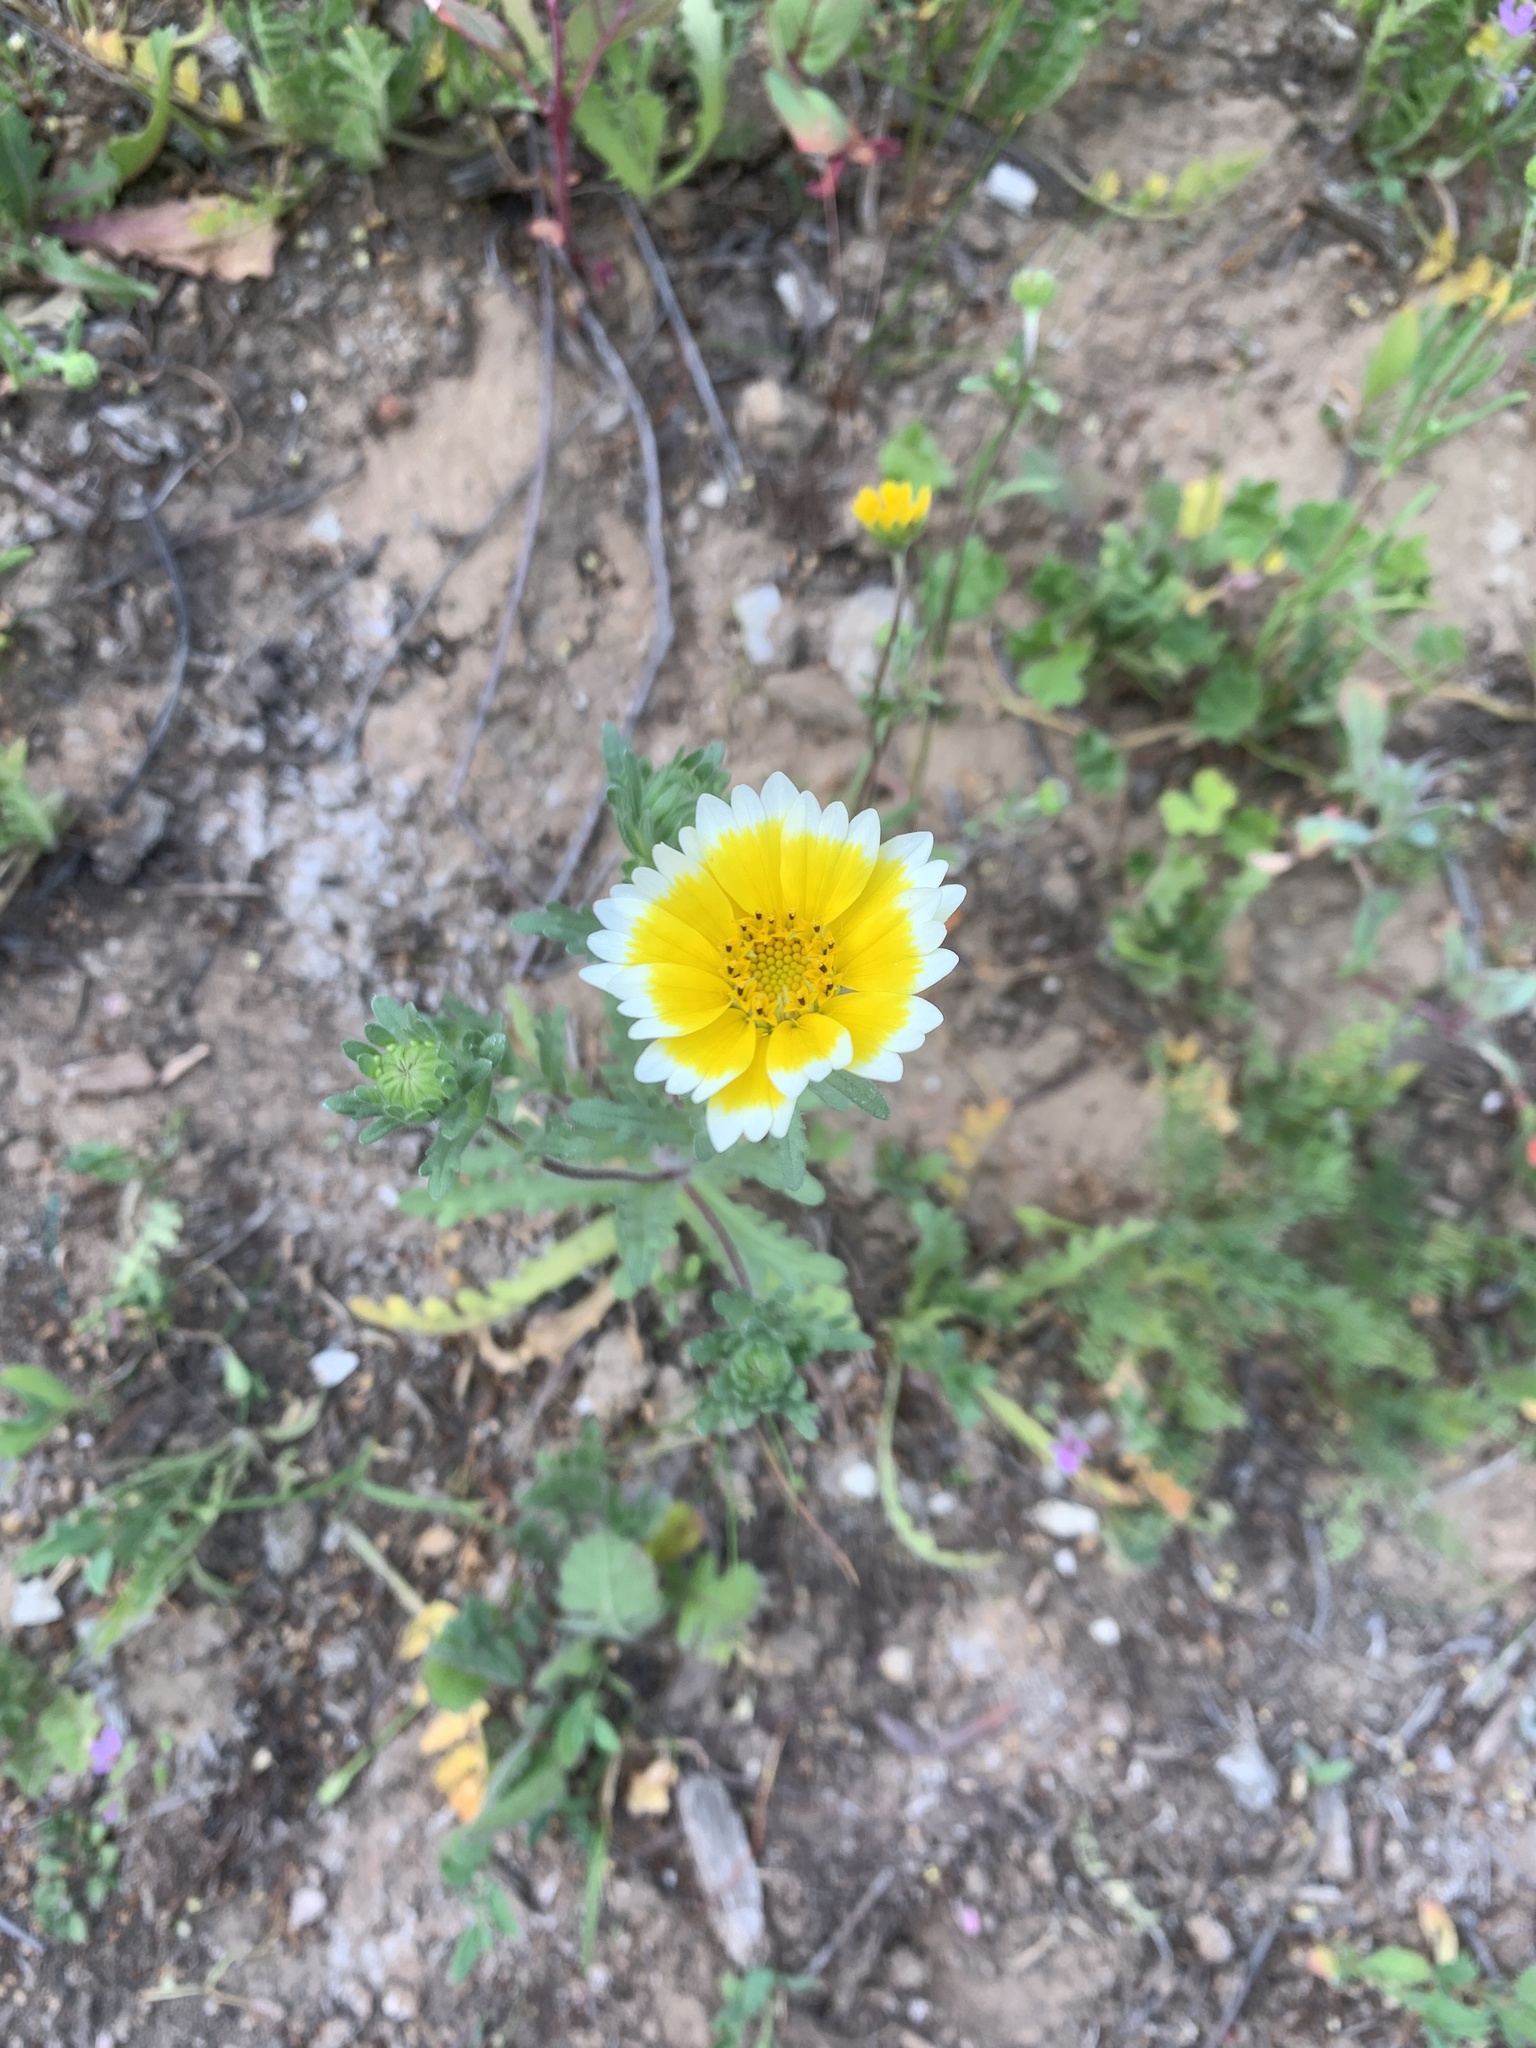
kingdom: Plantae
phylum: Tracheophyta
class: Magnoliopsida
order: Asterales
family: Asteraceae
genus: Layia
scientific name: Layia platyglossa
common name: Tidy-tips
